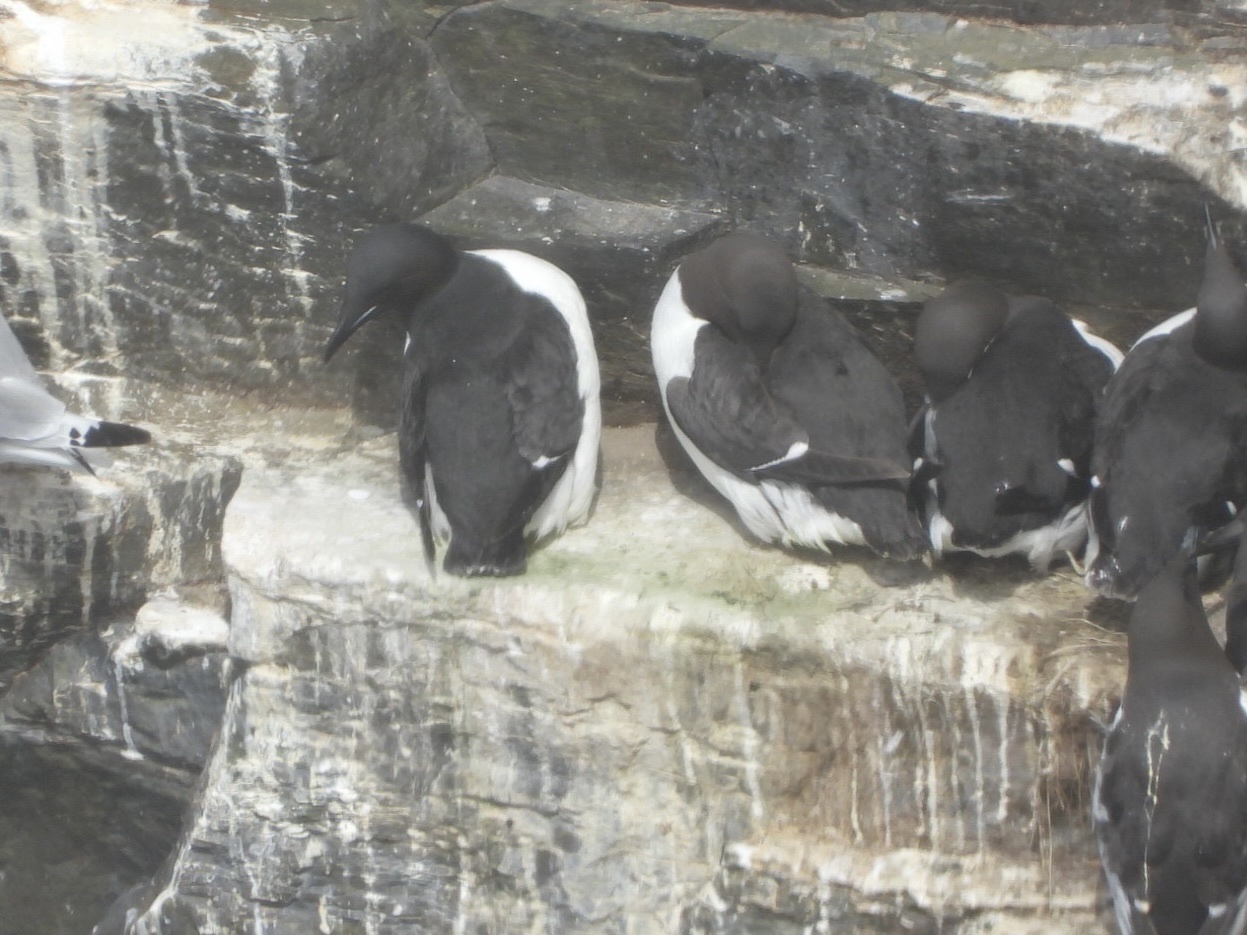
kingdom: Animalia
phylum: Chordata
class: Aves
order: Charadriiformes
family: Alcidae
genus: Uria
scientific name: Uria lomvia
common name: Thick-billed murre
